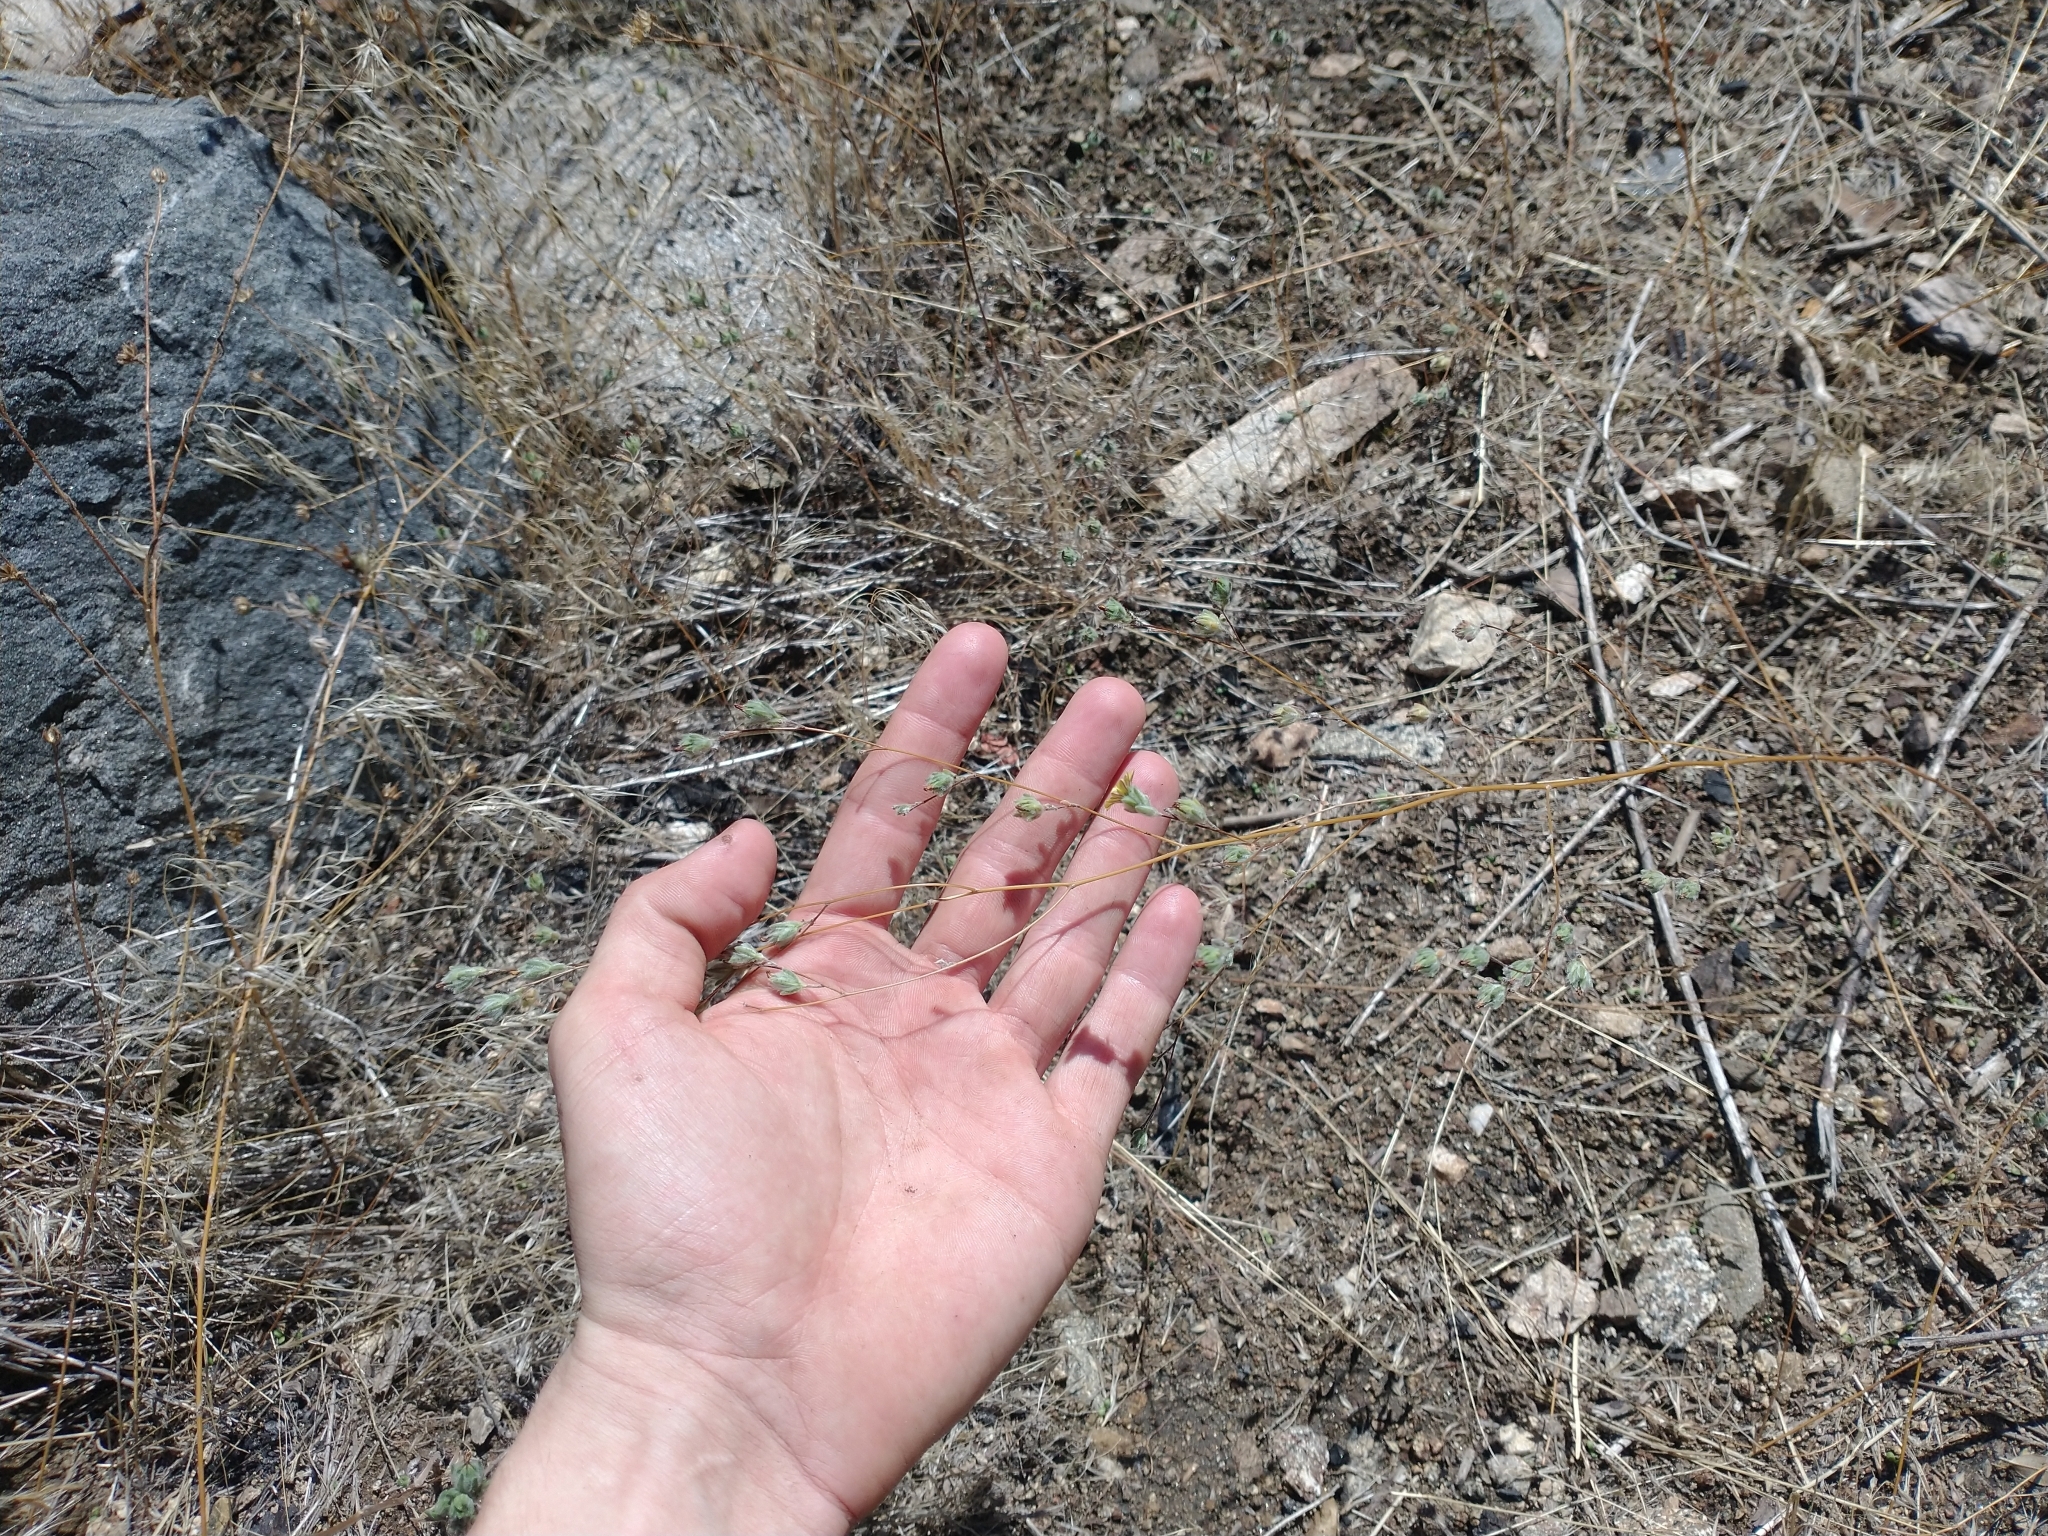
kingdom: Plantae
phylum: Tracheophyta
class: Magnoliopsida
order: Asterales
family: Asteraceae
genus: Lagophylla
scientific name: Lagophylla ramosissima
